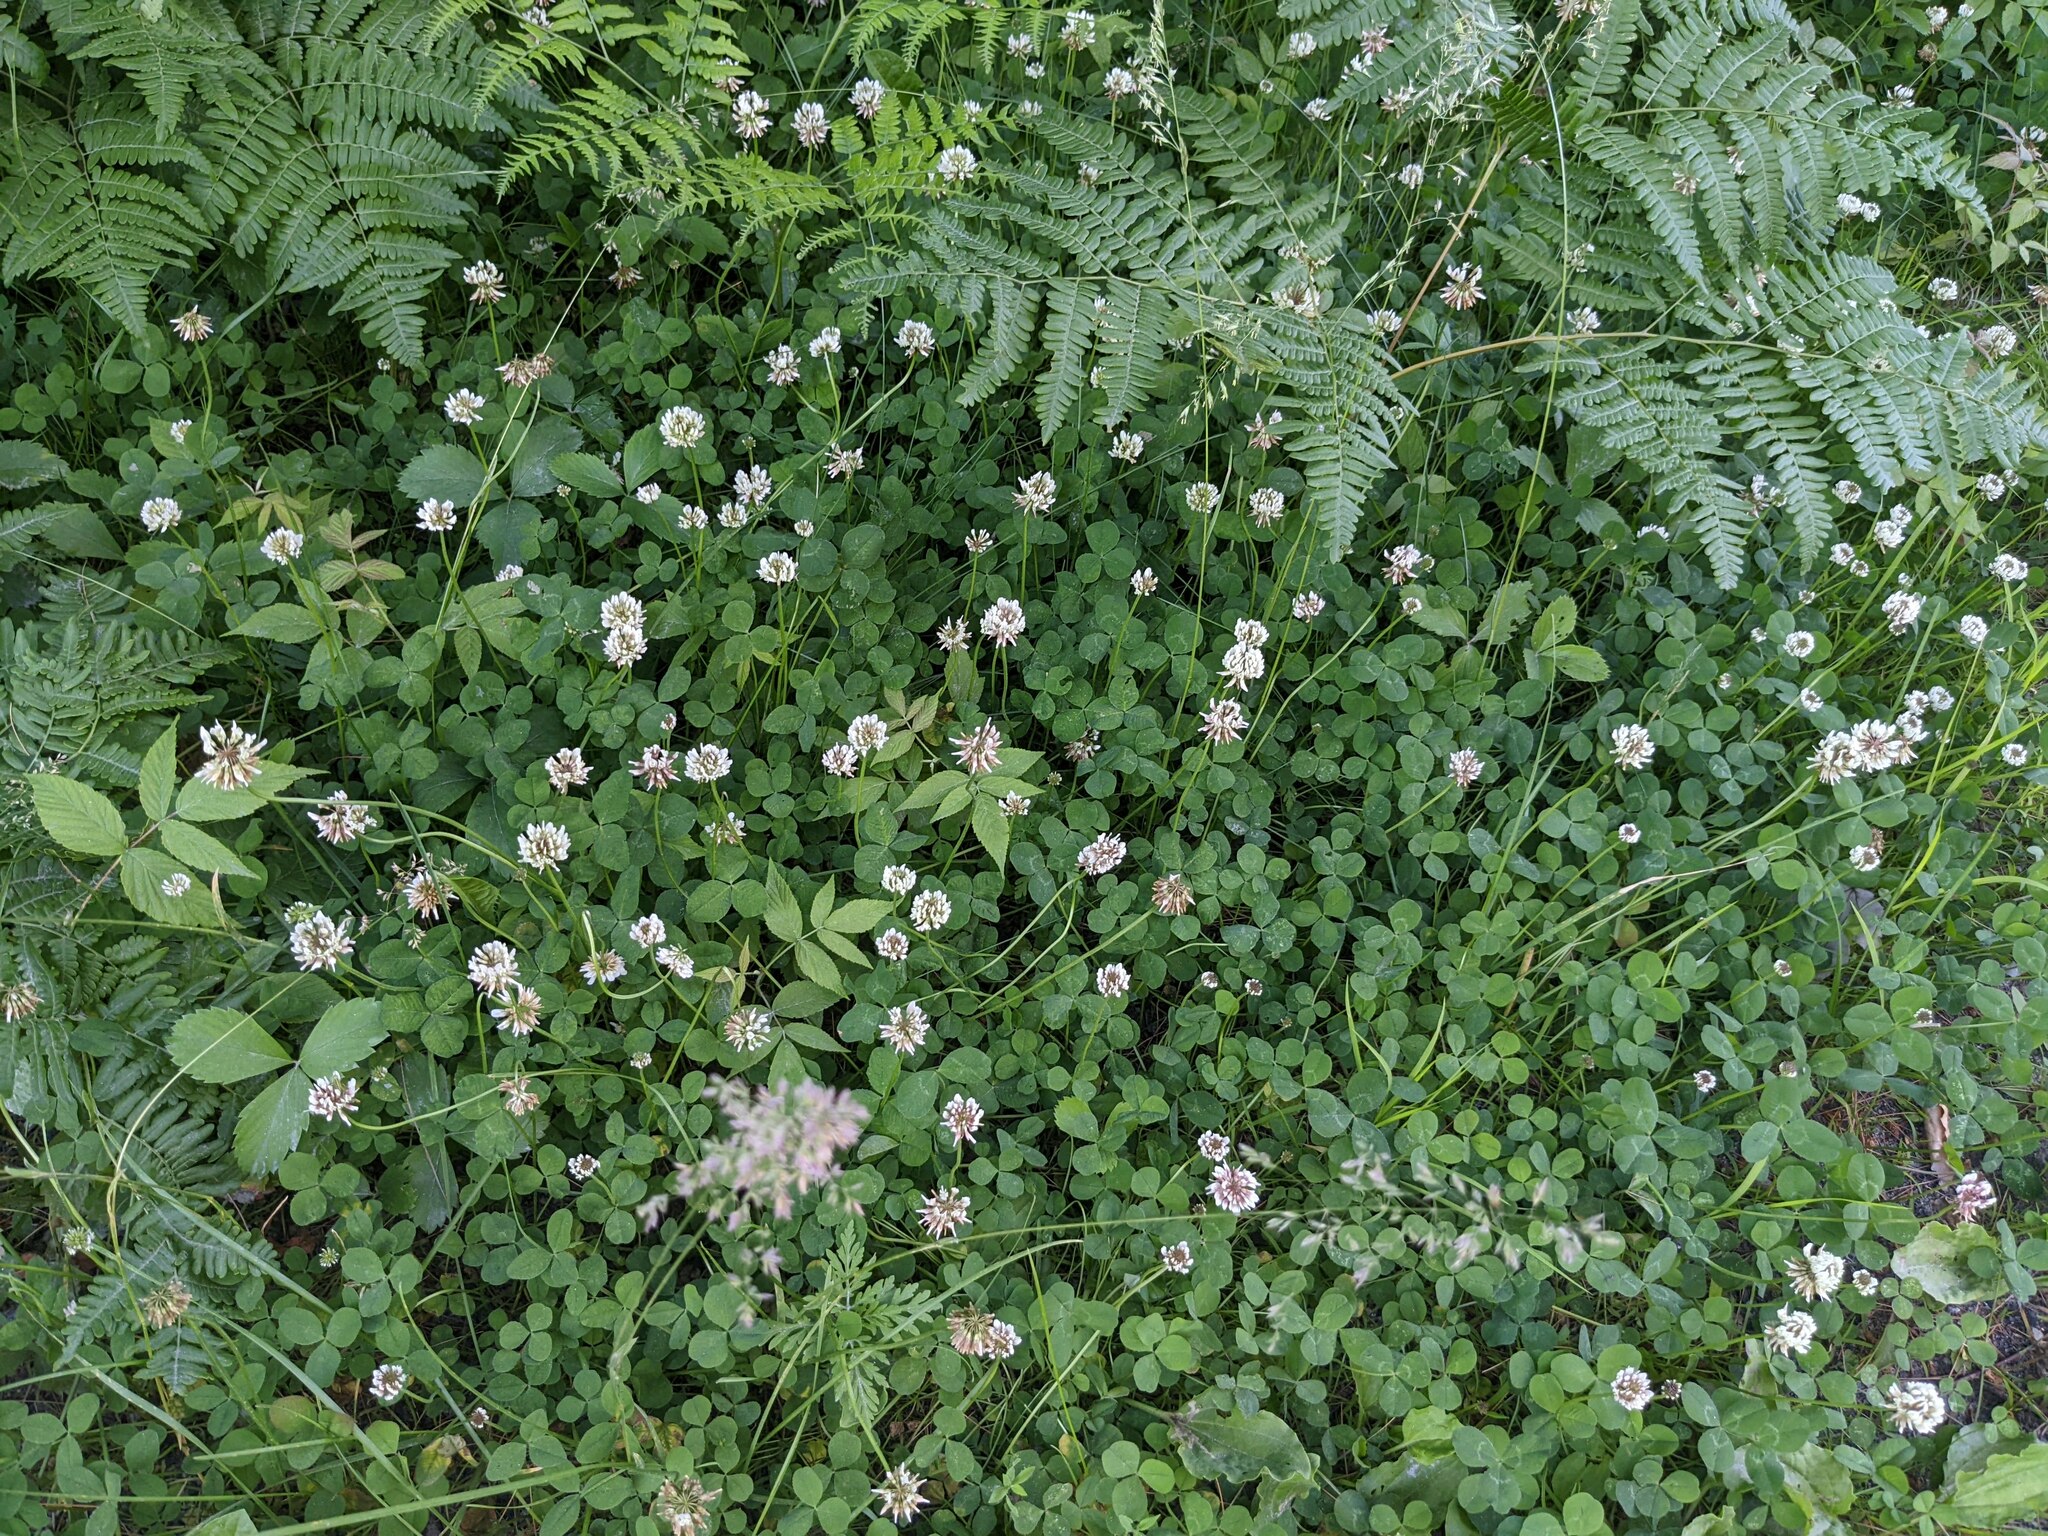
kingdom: Plantae
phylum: Tracheophyta
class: Magnoliopsida
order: Fabales
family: Fabaceae
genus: Trifolium
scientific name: Trifolium repens
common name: White clover
